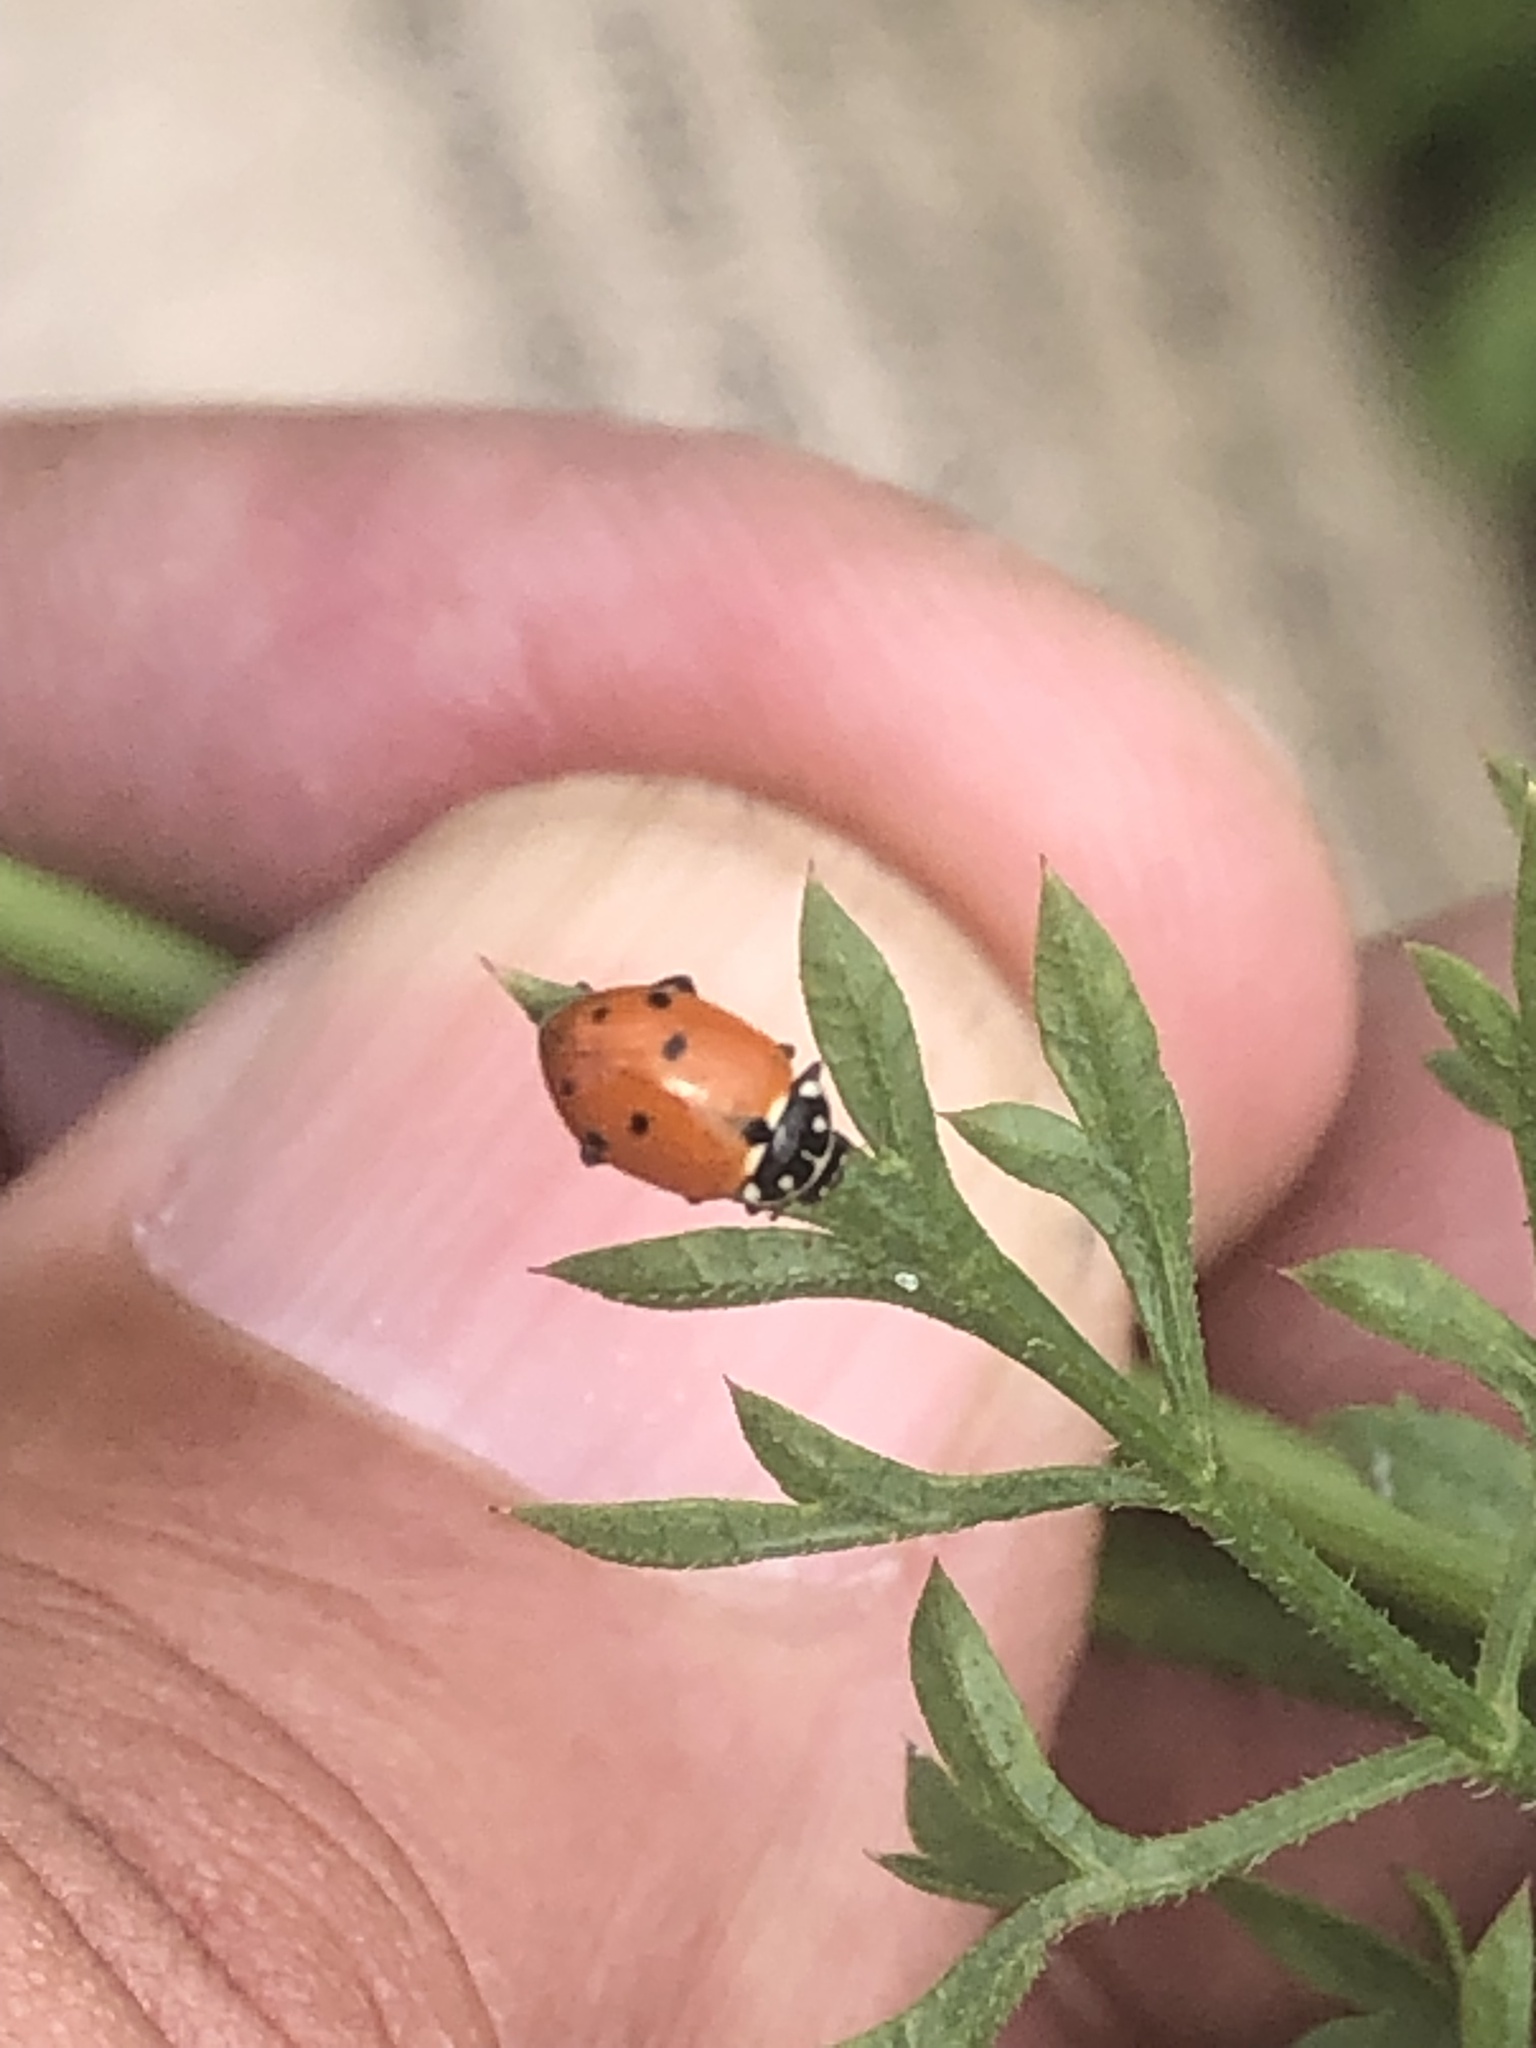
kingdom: Animalia
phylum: Arthropoda
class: Insecta
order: Coleoptera
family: Coccinellidae
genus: Hippodamia
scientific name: Hippodamia variegata
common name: Ladybird beetle
